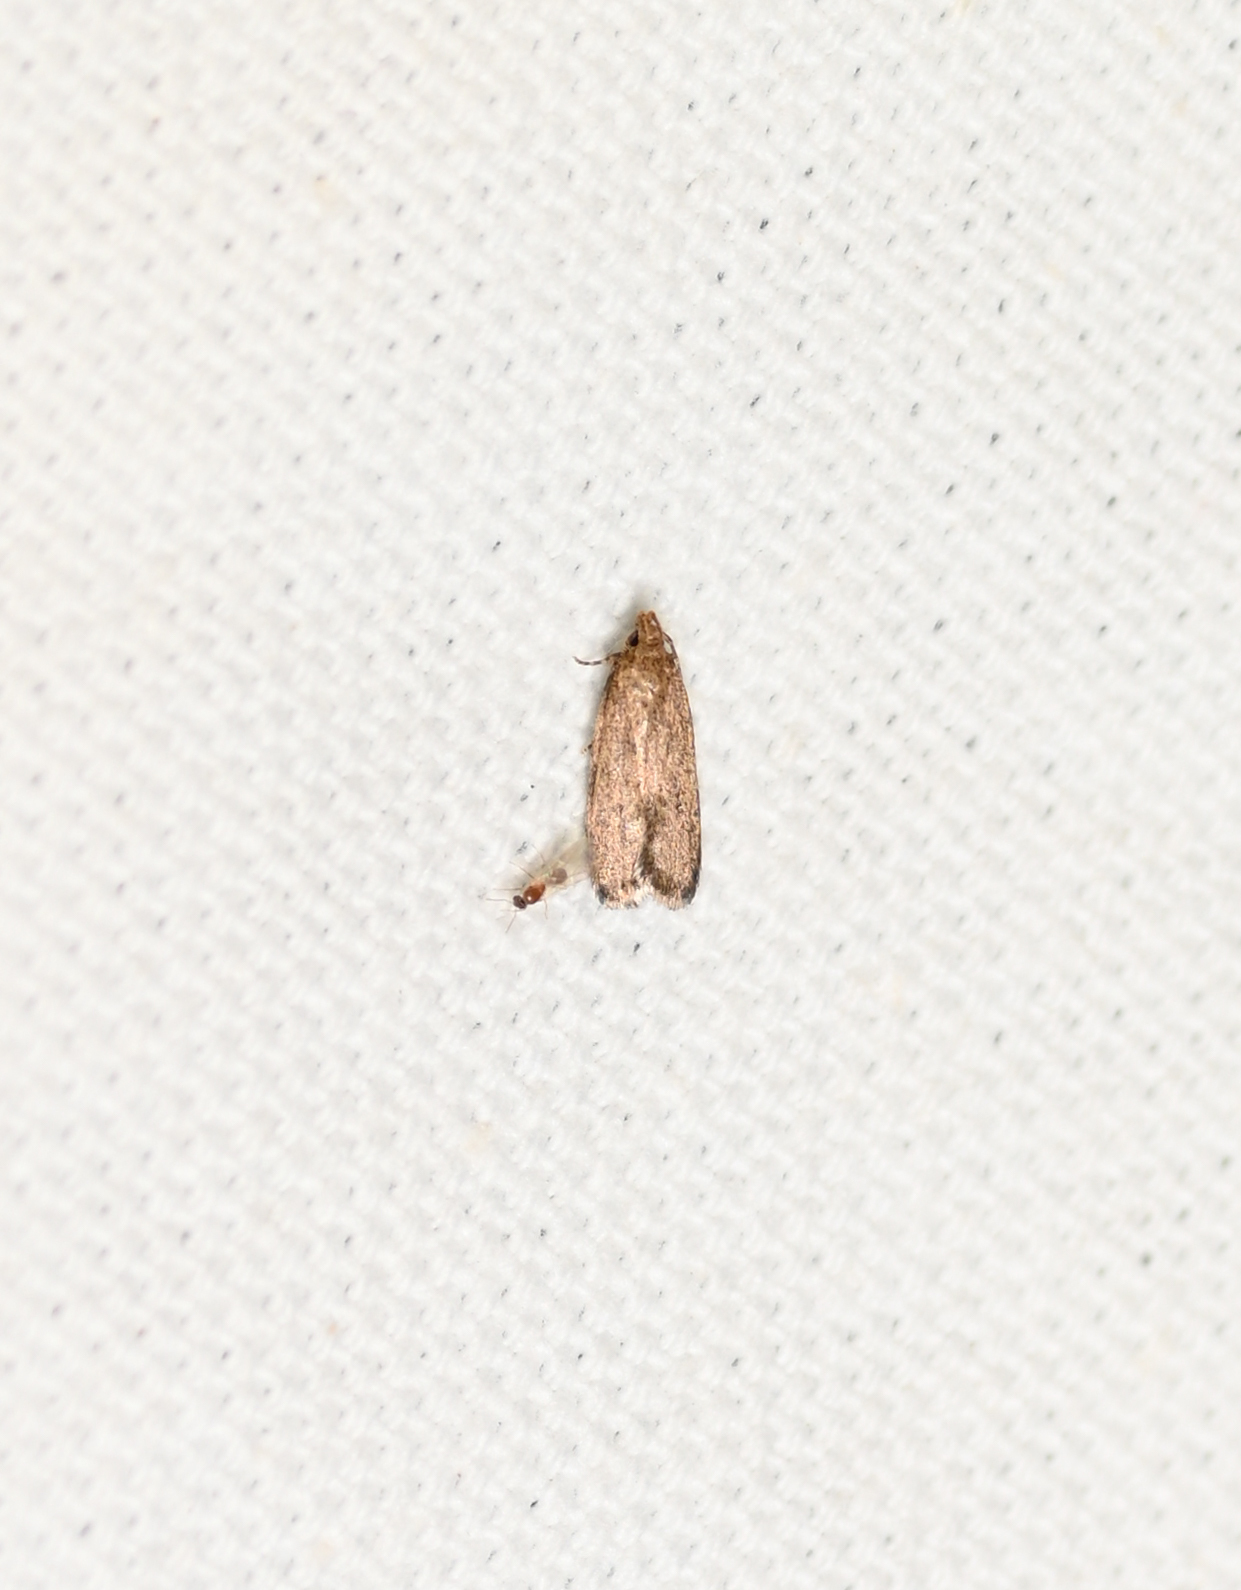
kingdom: Animalia
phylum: Arthropoda
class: Insecta
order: Lepidoptera
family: Autostichidae
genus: Glyphidocera
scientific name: Glyphidocera juniperella
